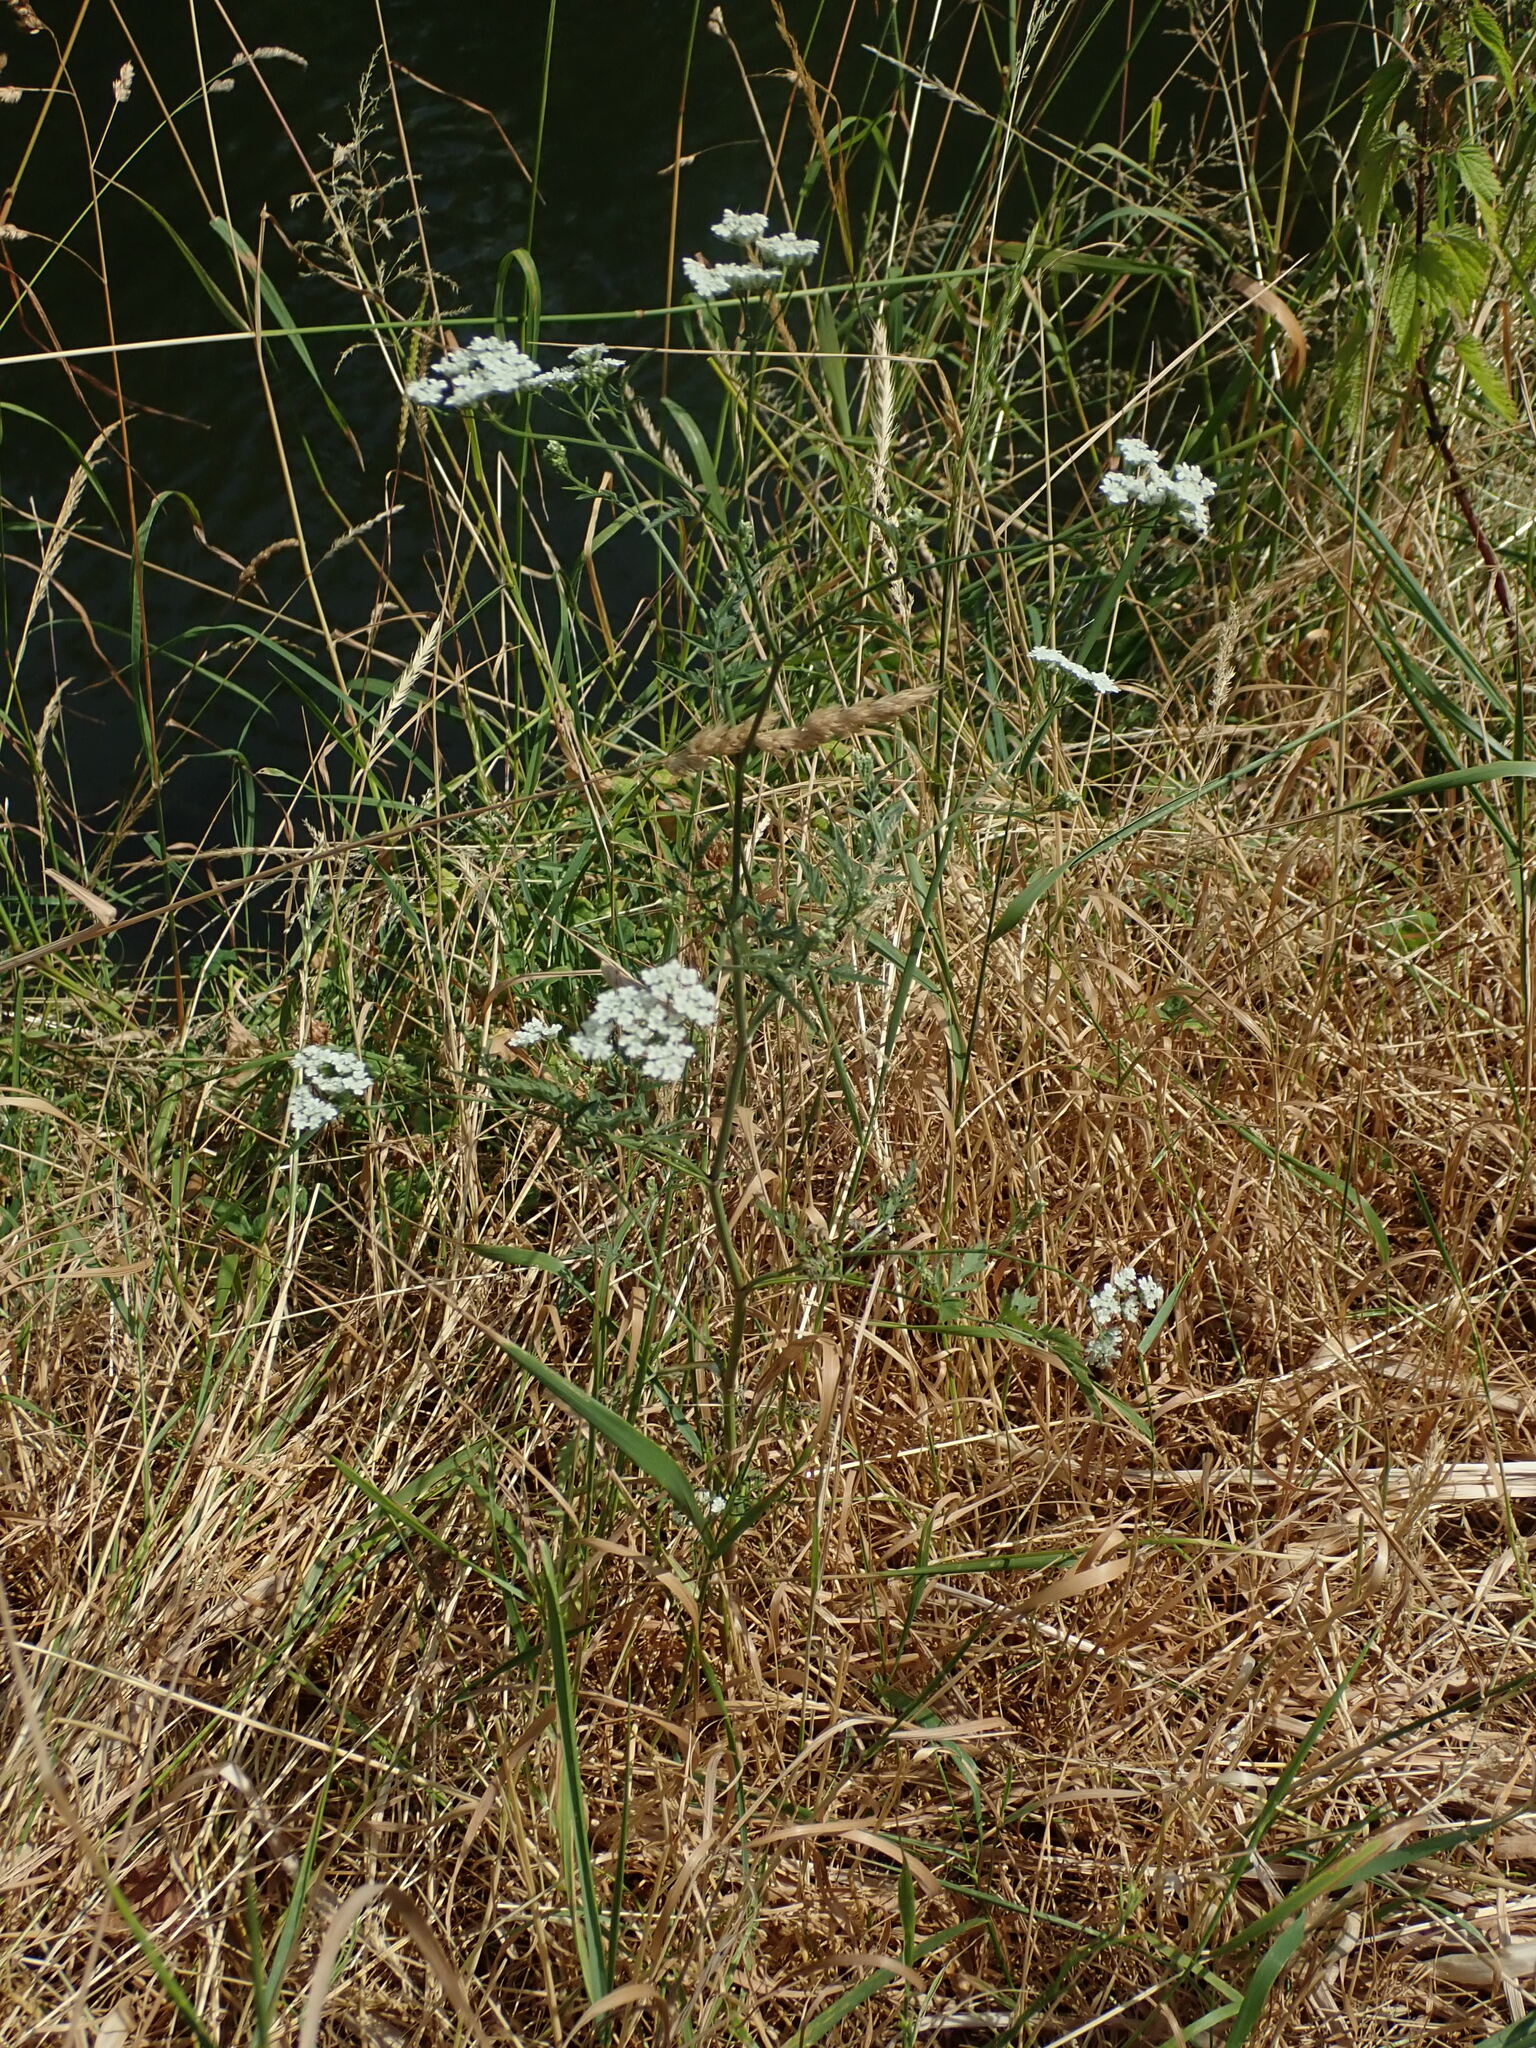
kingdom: Plantae
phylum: Tracheophyta
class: Magnoliopsida
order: Apiales
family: Apiaceae
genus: Torilis
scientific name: Torilis arvensis
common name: Spreading hedge-parsley
